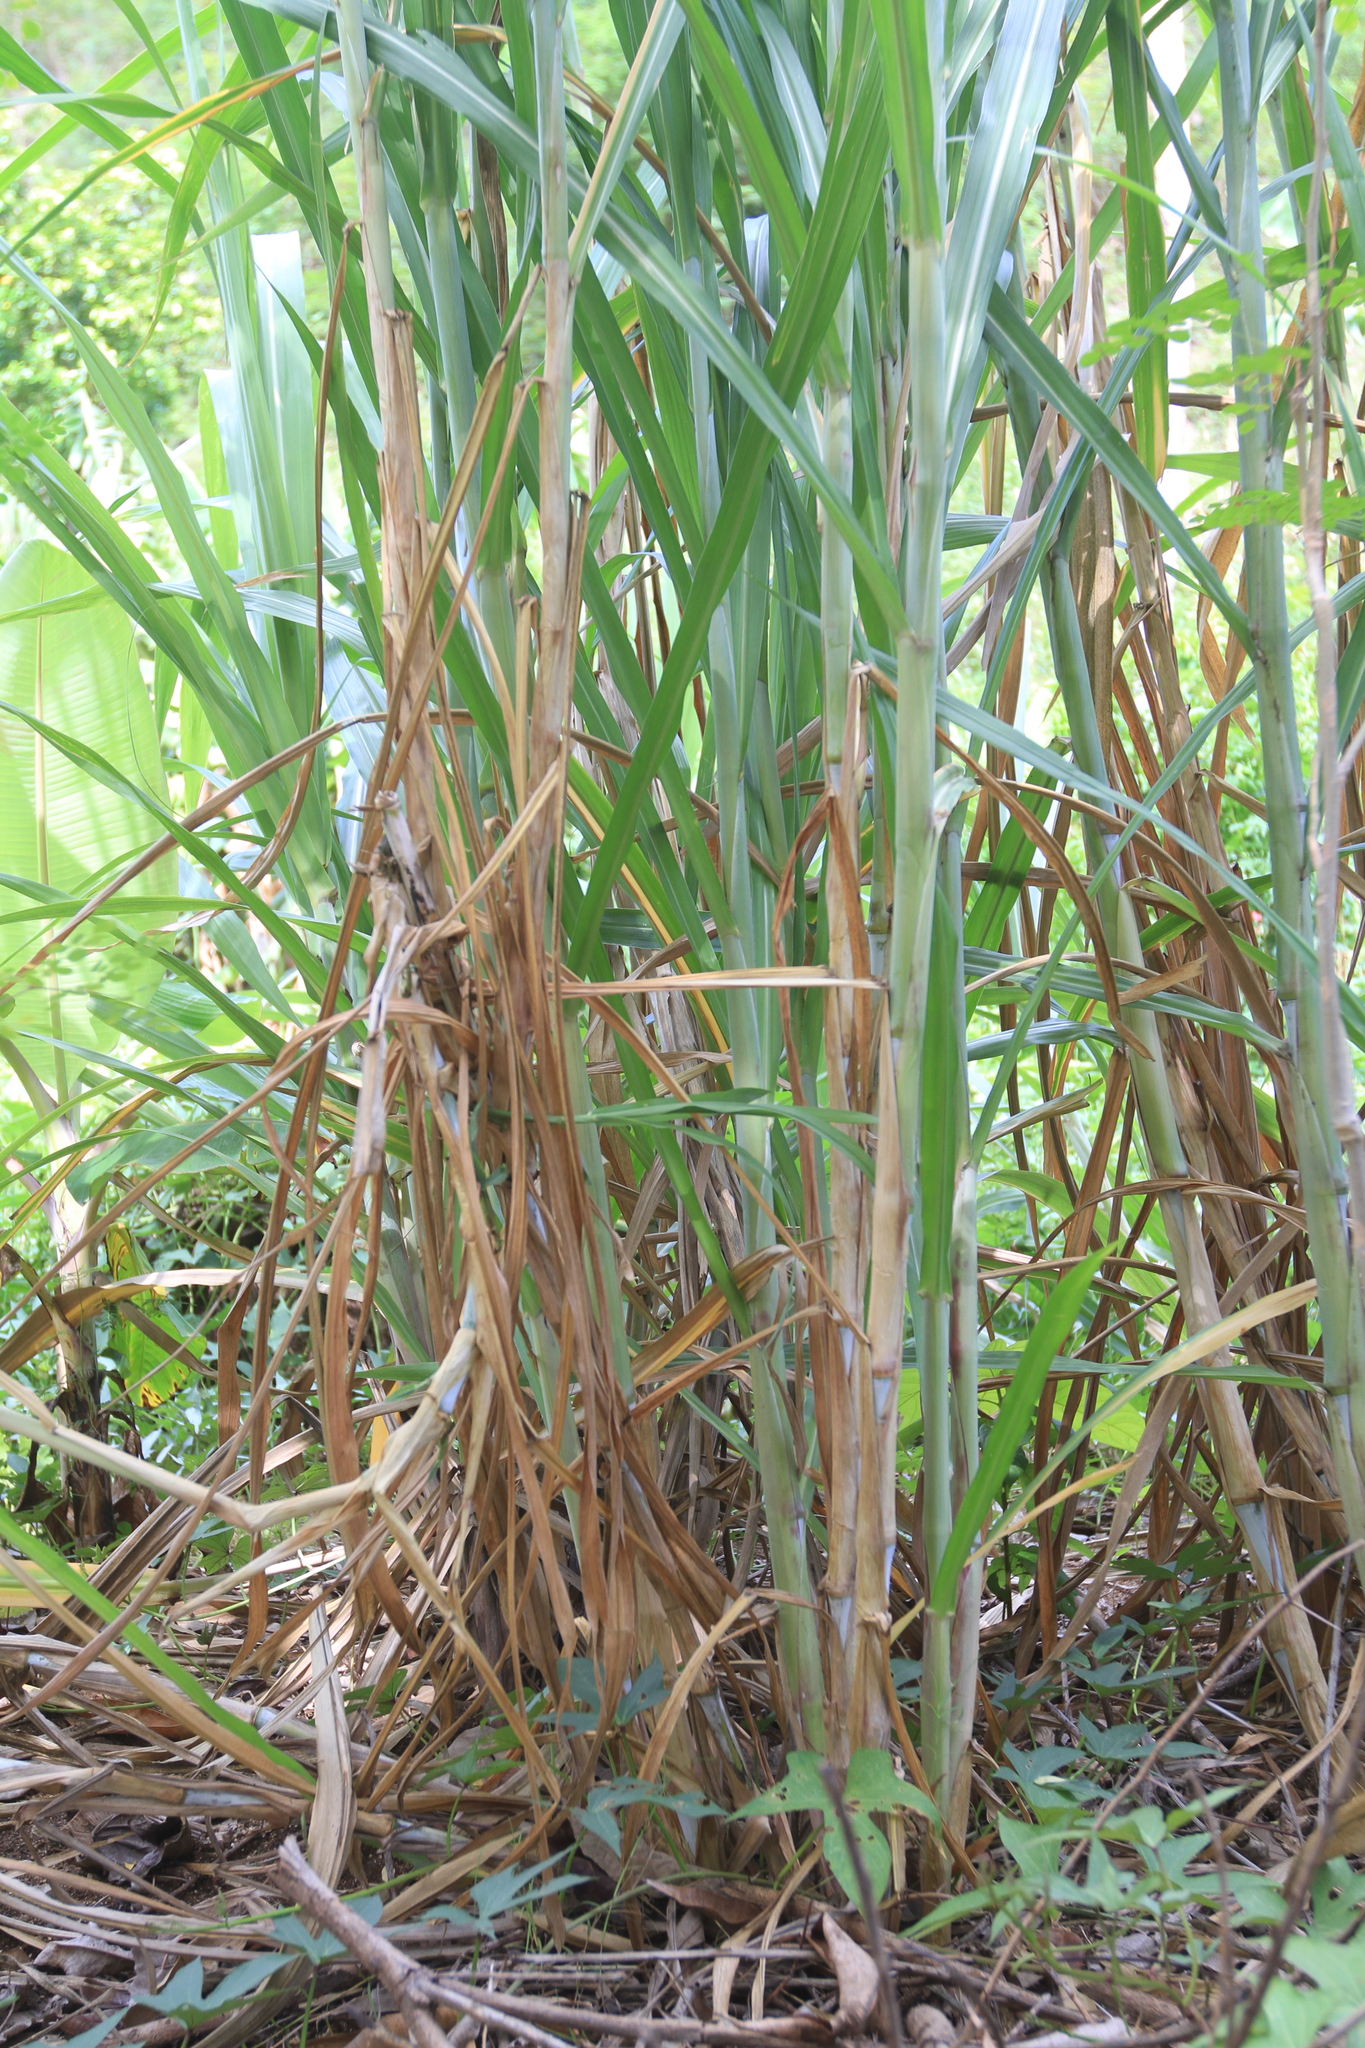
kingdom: Plantae
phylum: Tracheophyta
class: Liliopsida
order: Poales
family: Poaceae
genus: Saccharum
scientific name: Saccharum
